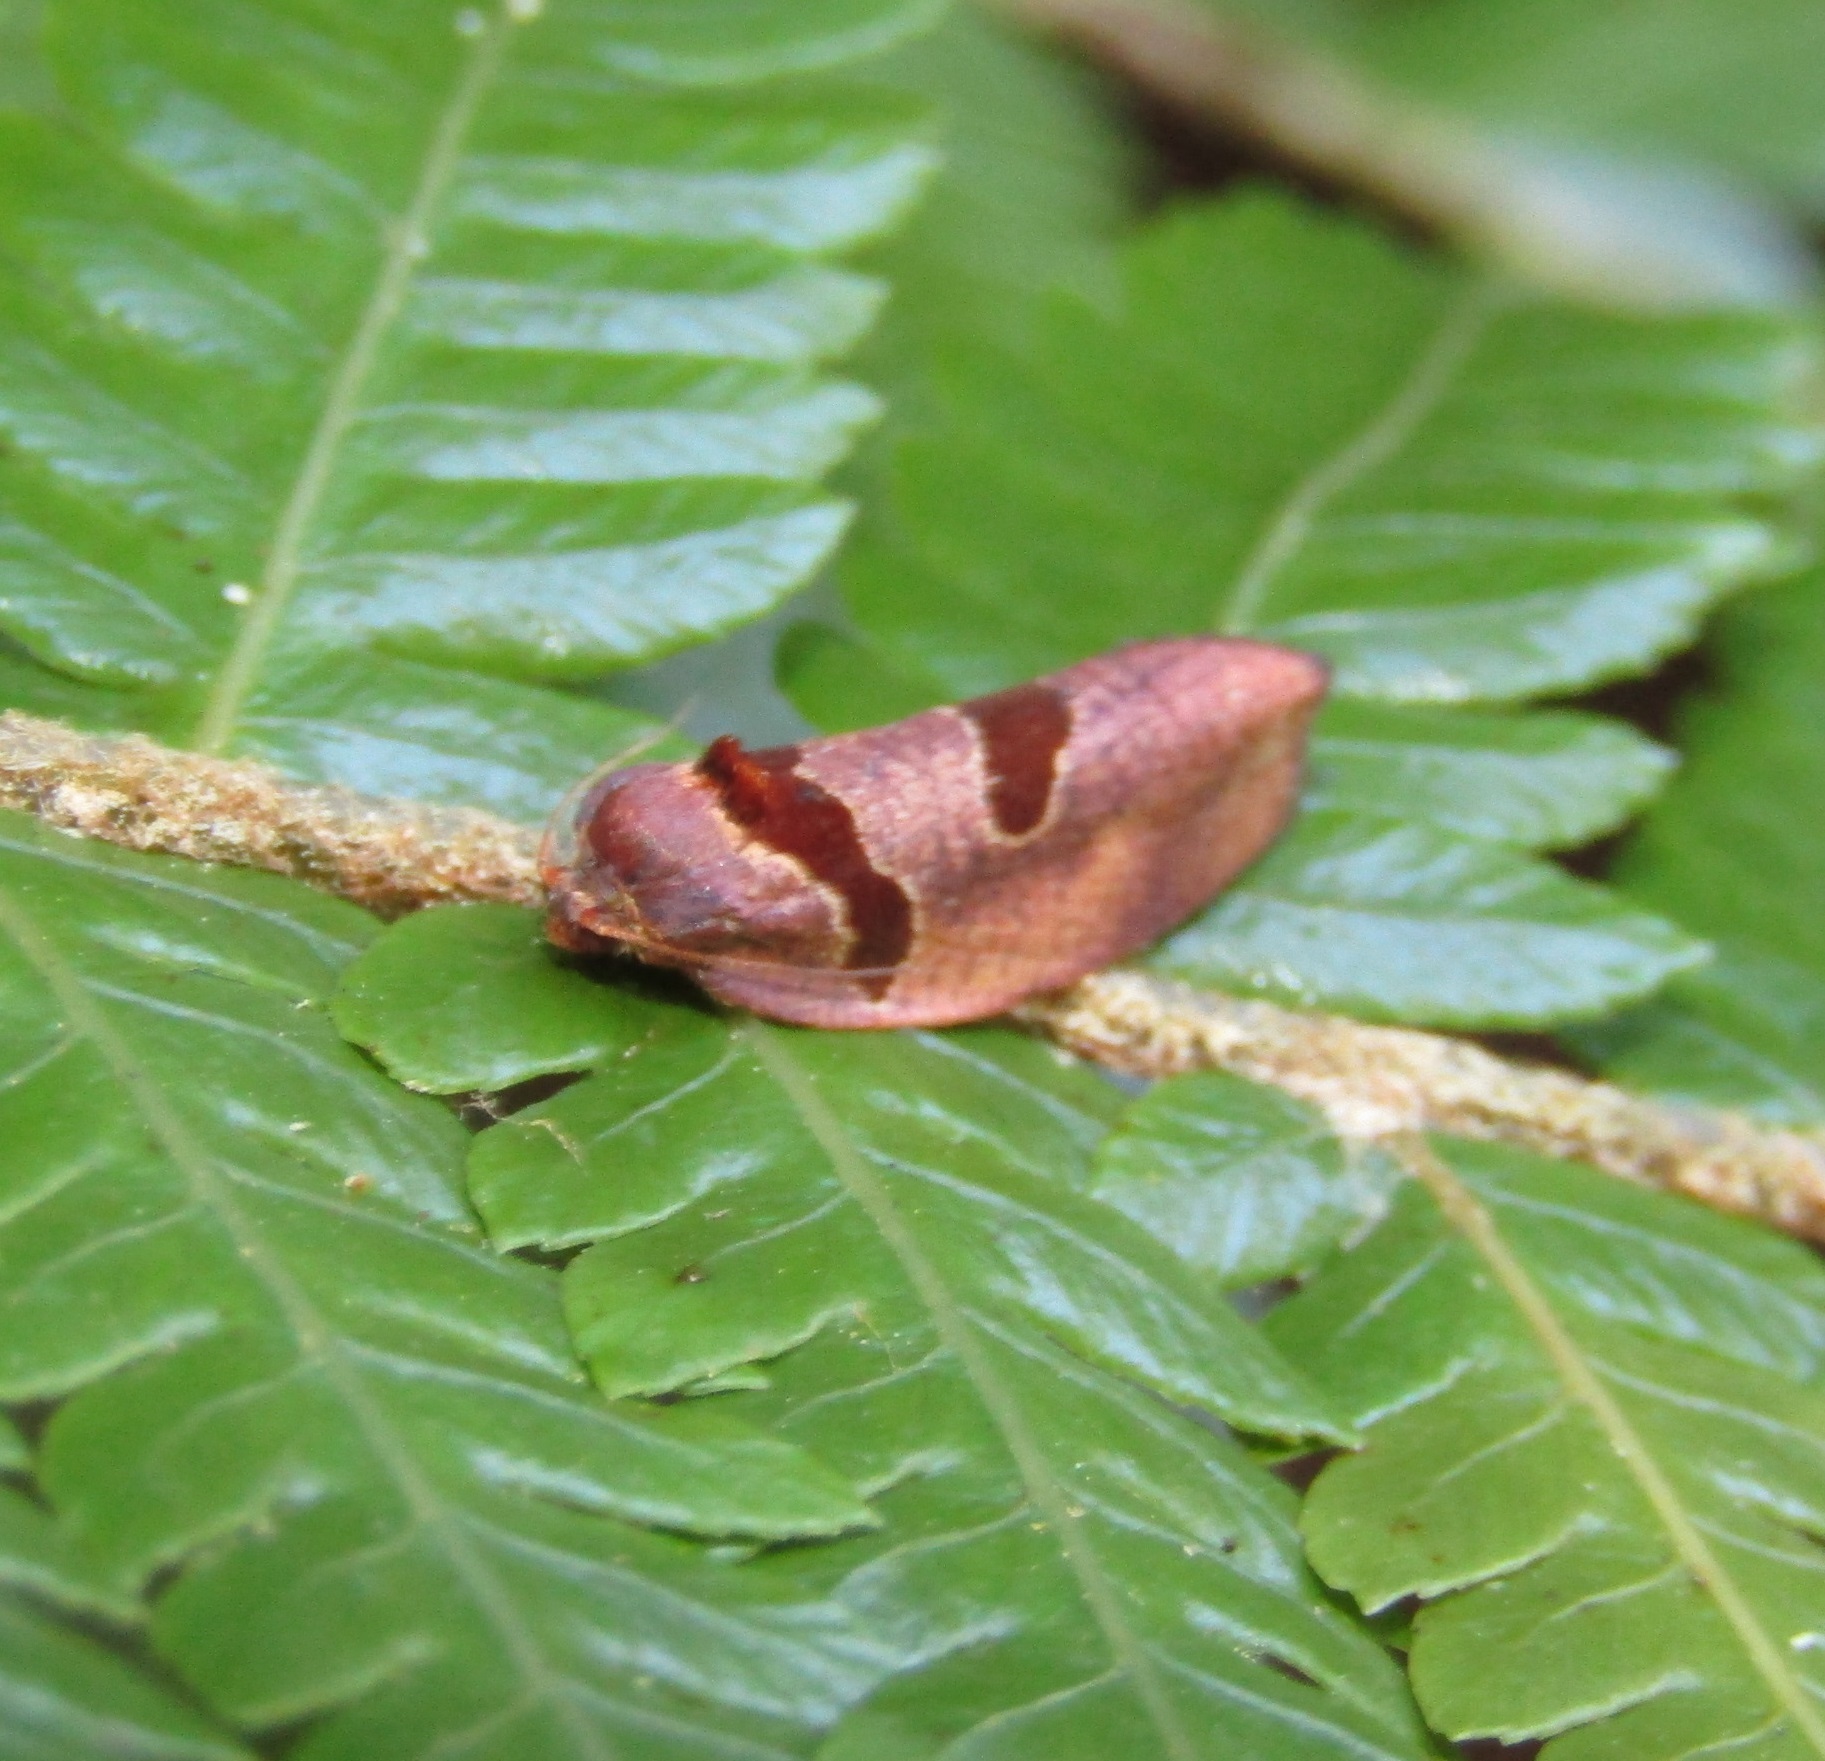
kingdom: Animalia
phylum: Arthropoda
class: Insecta
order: Lepidoptera
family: Tortricidae
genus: Ochetarcha
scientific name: Ochetarcha
